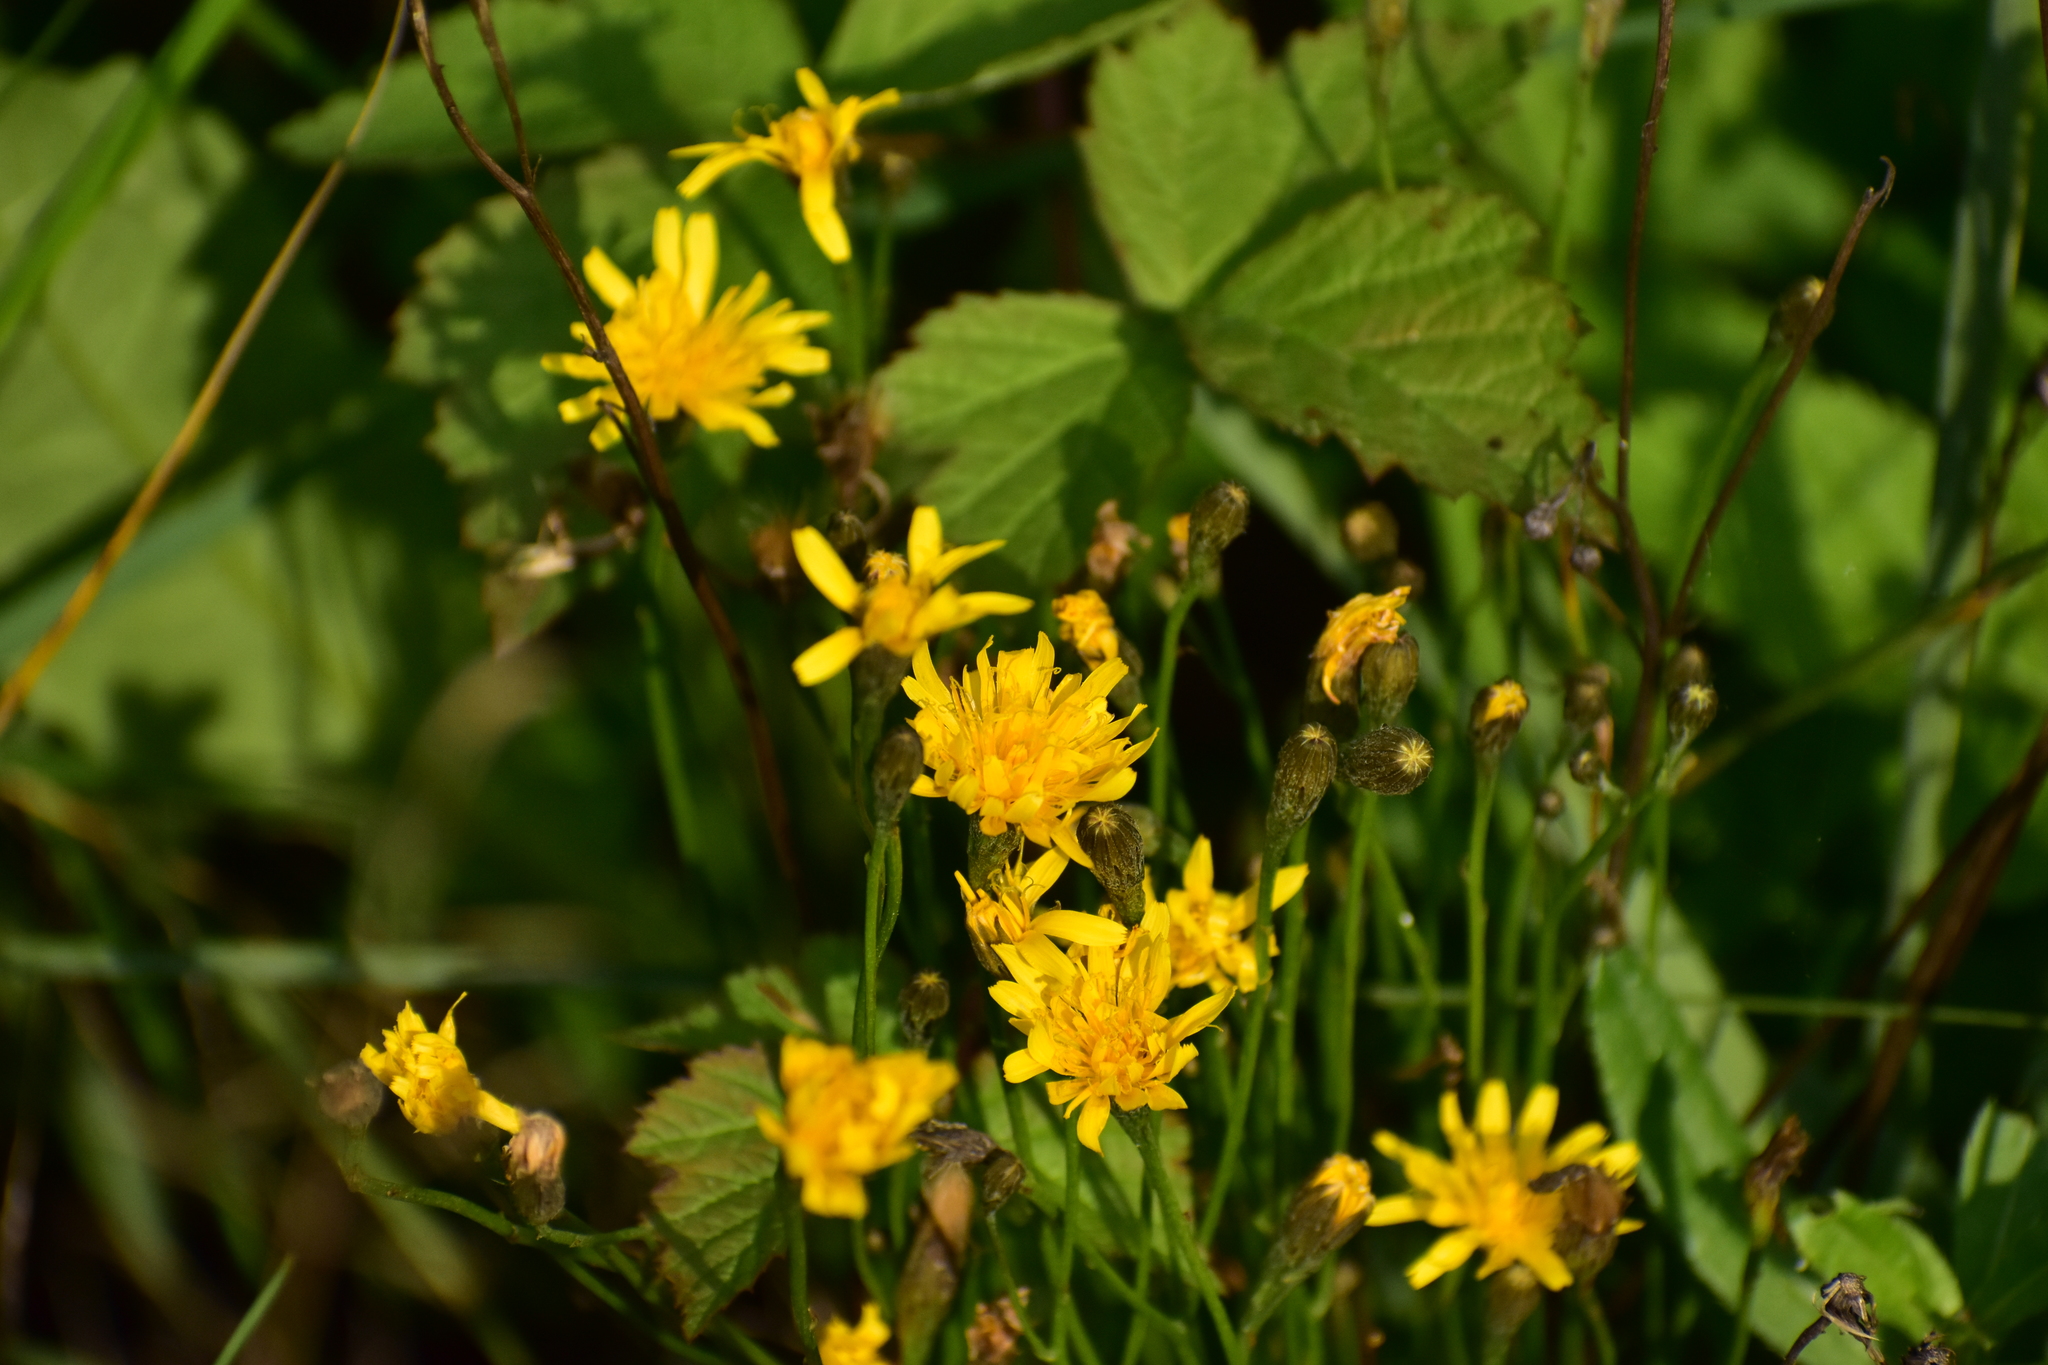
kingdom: Plantae
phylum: Tracheophyta
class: Magnoliopsida
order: Asterales
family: Asteraceae
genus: Scorzoneroides
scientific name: Scorzoneroides autumnalis
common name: Autumn hawkbit
